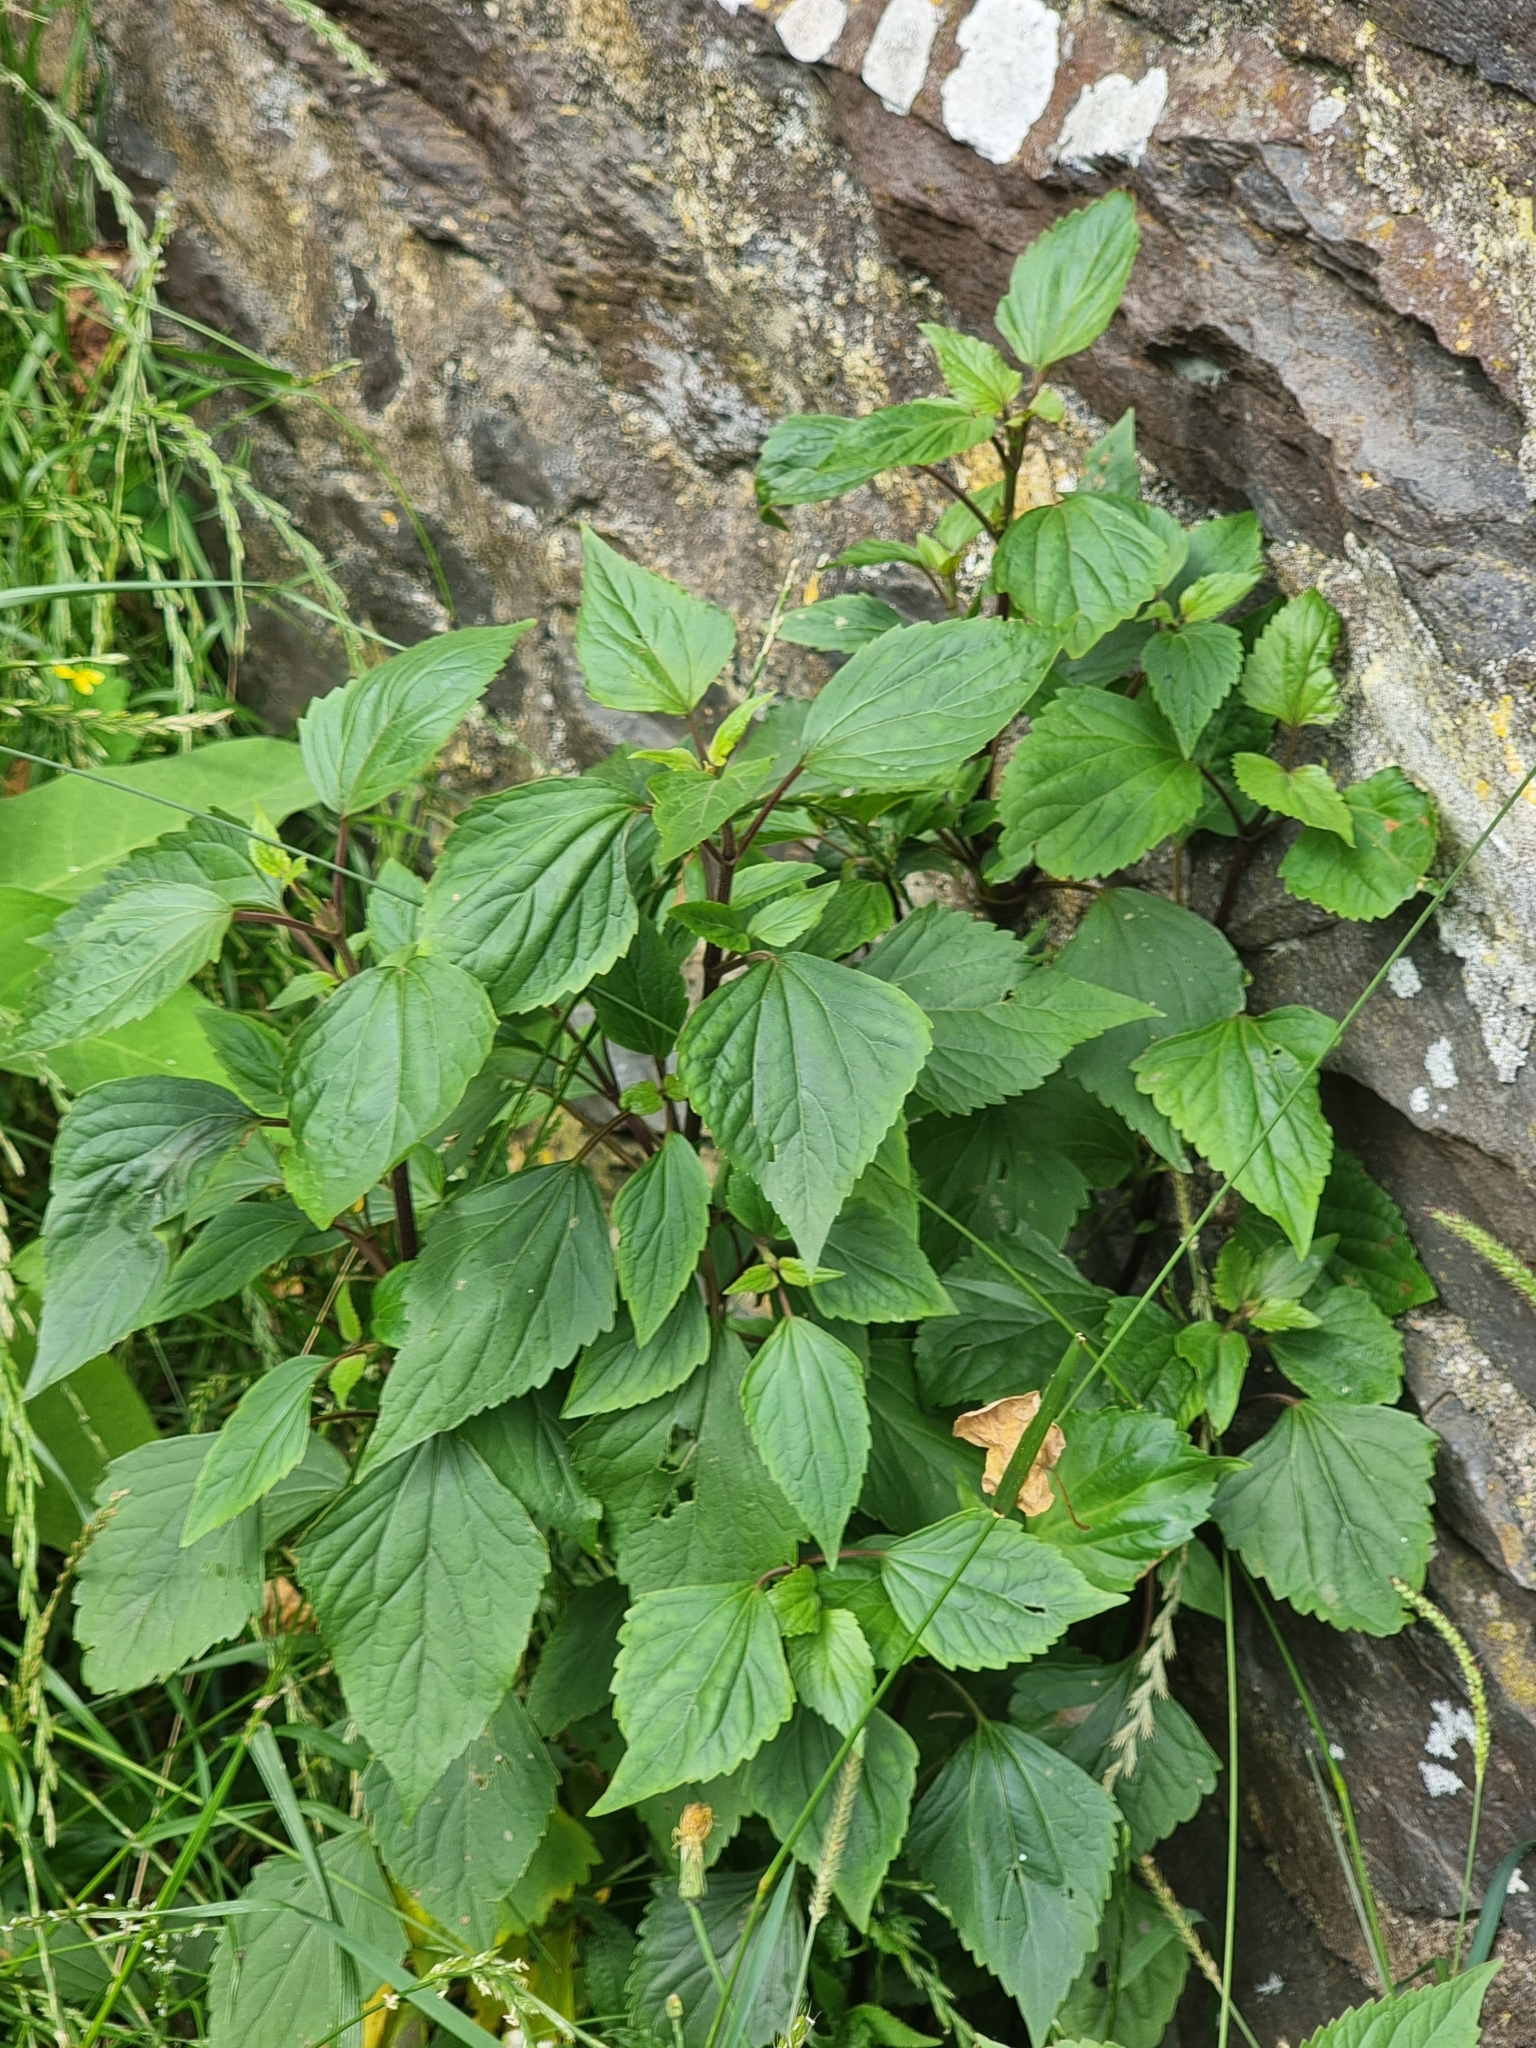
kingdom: Plantae
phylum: Tracheophyta
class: Magnoliopsida
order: Asterales
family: Asteraceae
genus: Ageratina
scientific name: Ageratina adenophora
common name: Sticky snakeroot
